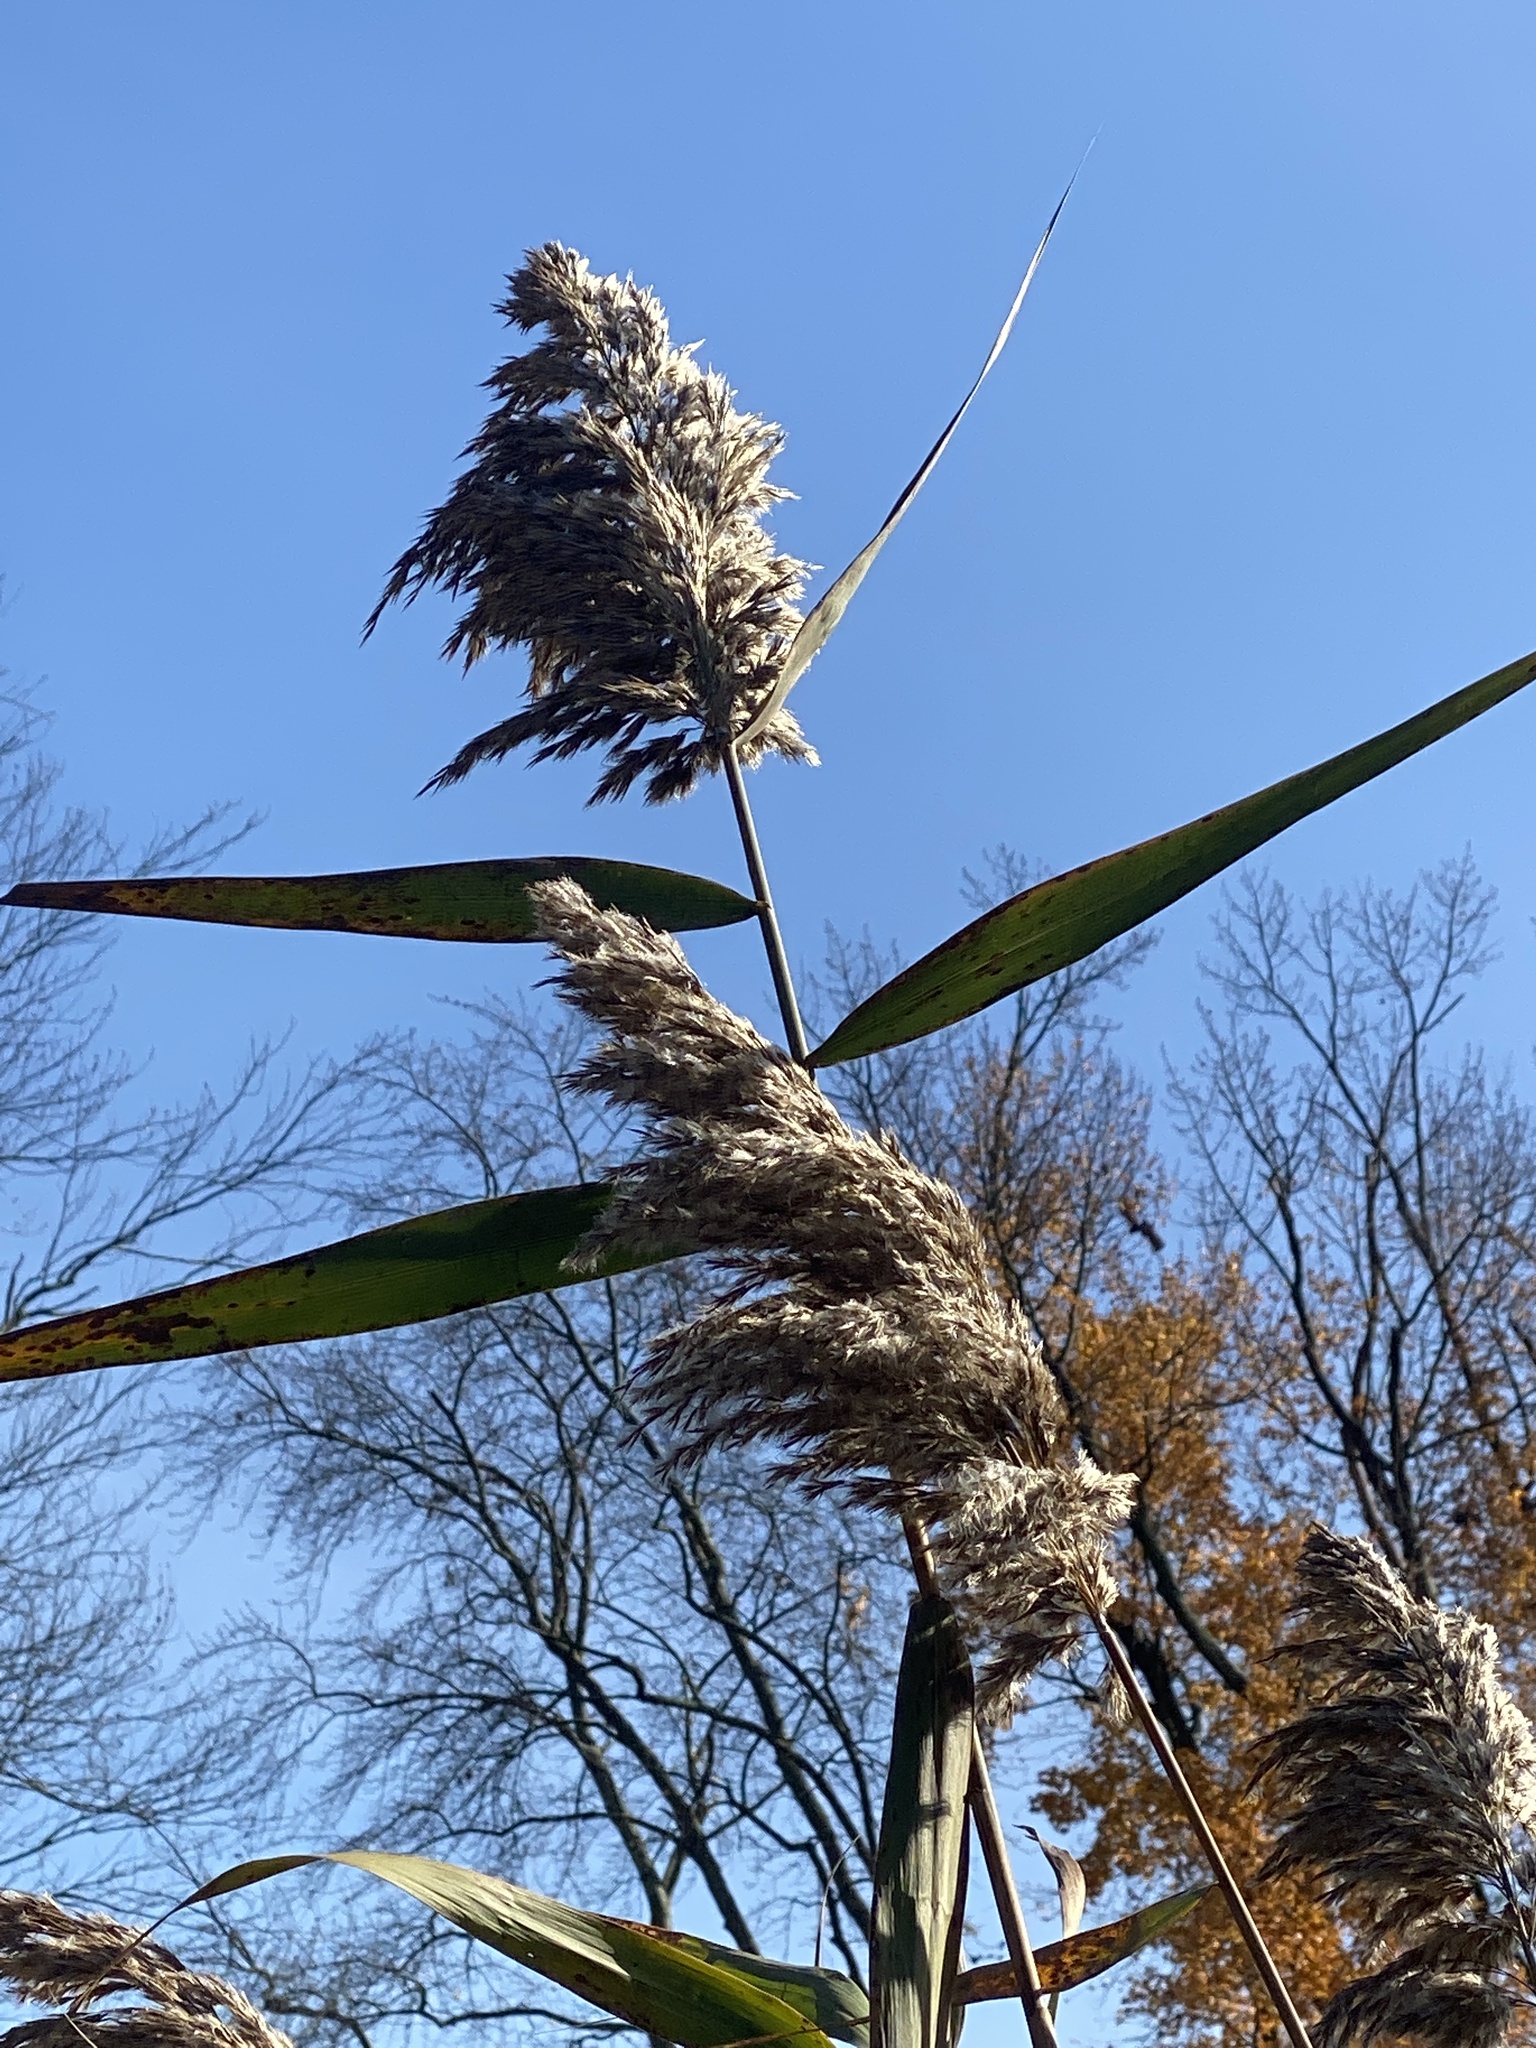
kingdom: Plantae
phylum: Tracheophyta
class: Liliopsida
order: Poales
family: Poaceae
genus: Phragmites
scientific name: Phragmites australis
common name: Common reed
